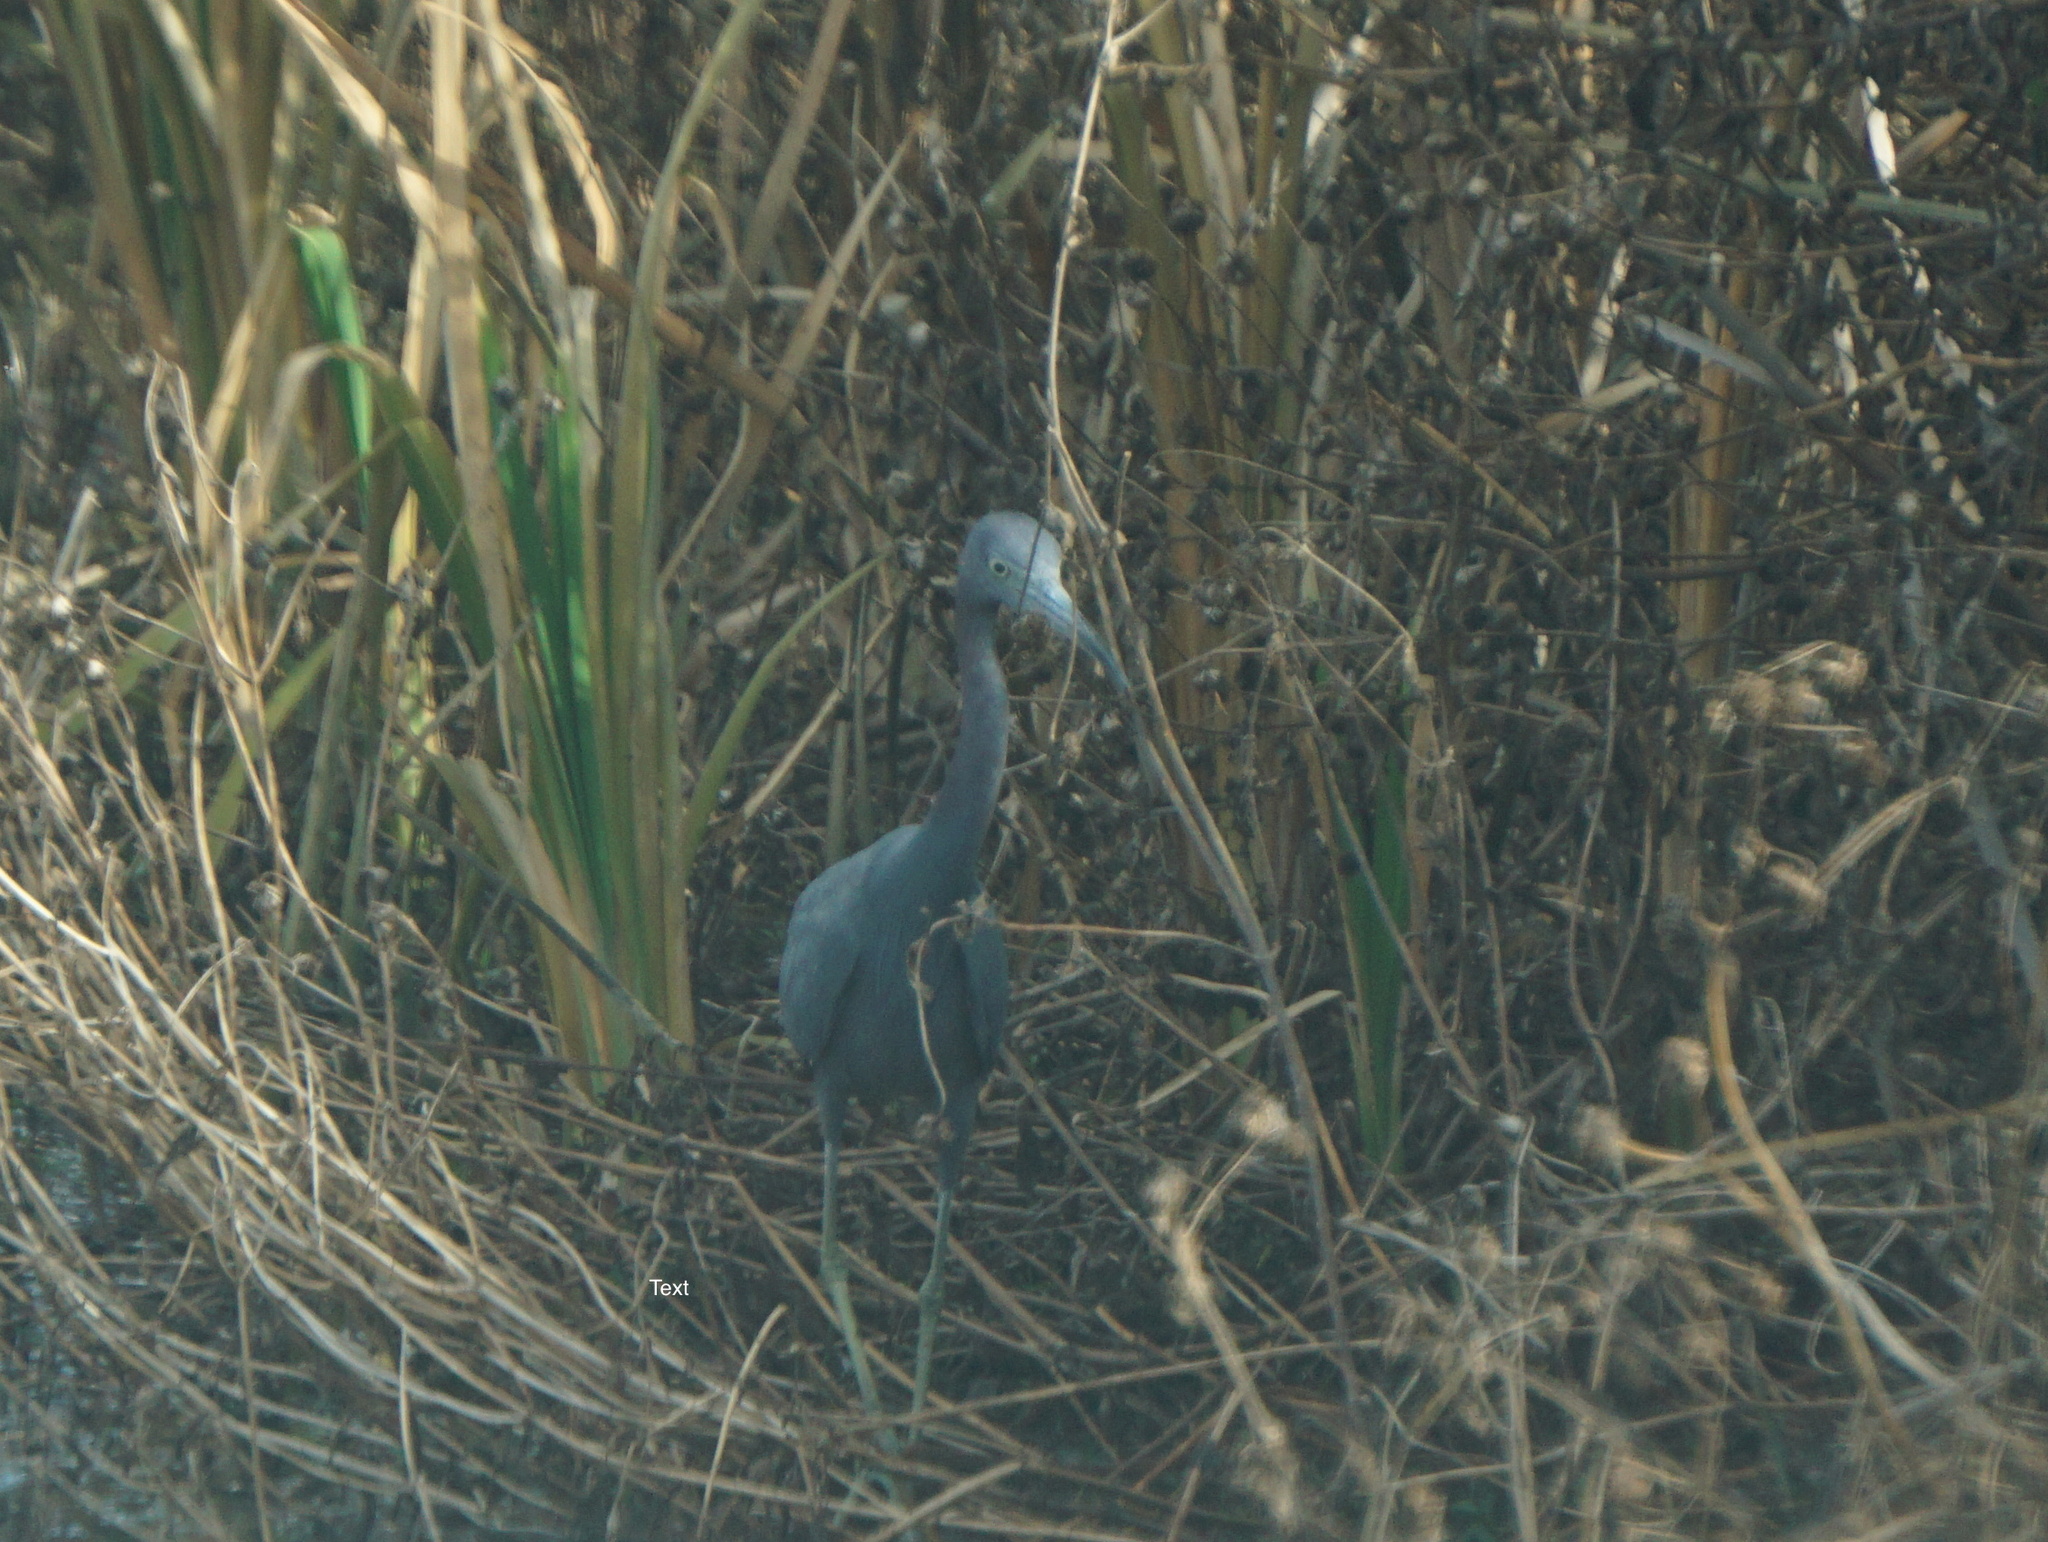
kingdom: Animalia
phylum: Chordata
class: Aves
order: Pelecaniformes
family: Ardeidae
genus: Egretta
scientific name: Egretta caerulea
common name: Little blue heron
